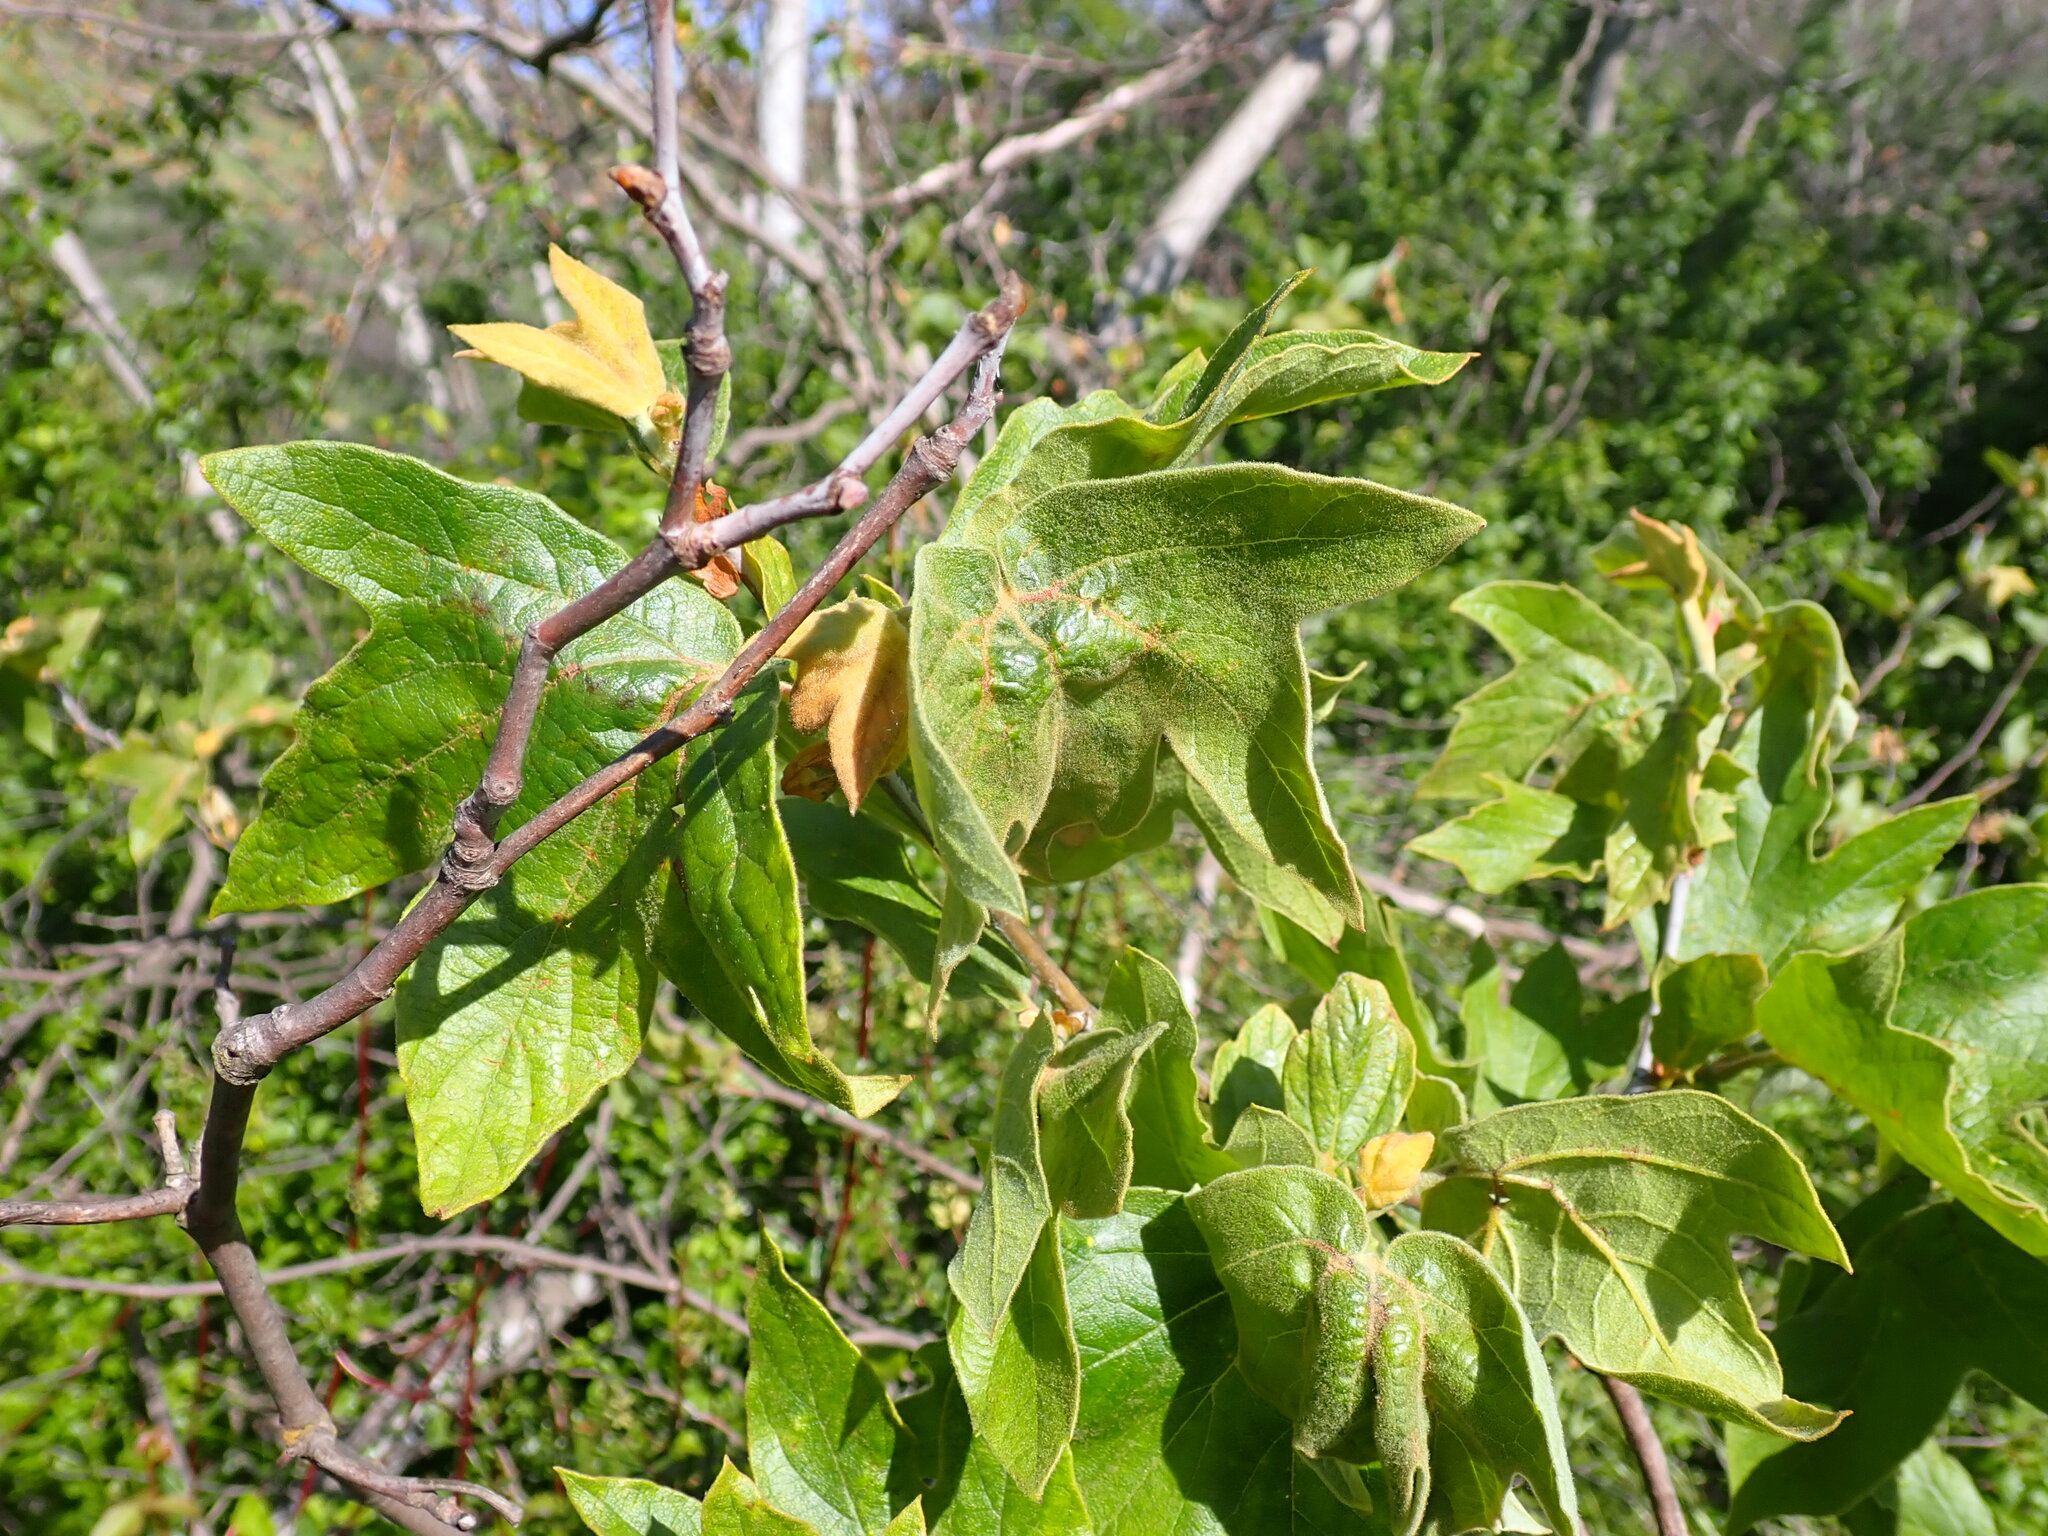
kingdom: Plantae
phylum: Tracheophyta
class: Magnoliopsida
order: Proteales
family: Platanaceae
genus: Platanus
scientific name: Platanus racemosa
